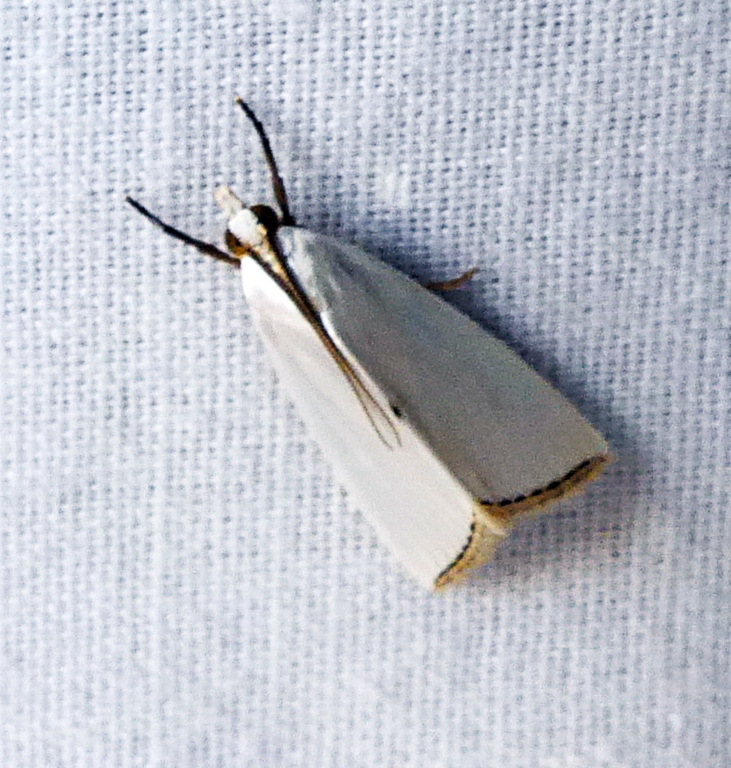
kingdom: Animalia
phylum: Arthropoda
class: Insecta
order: Lepidoptera
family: Crambidae
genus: Argyria
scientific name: Argyria nivalis
